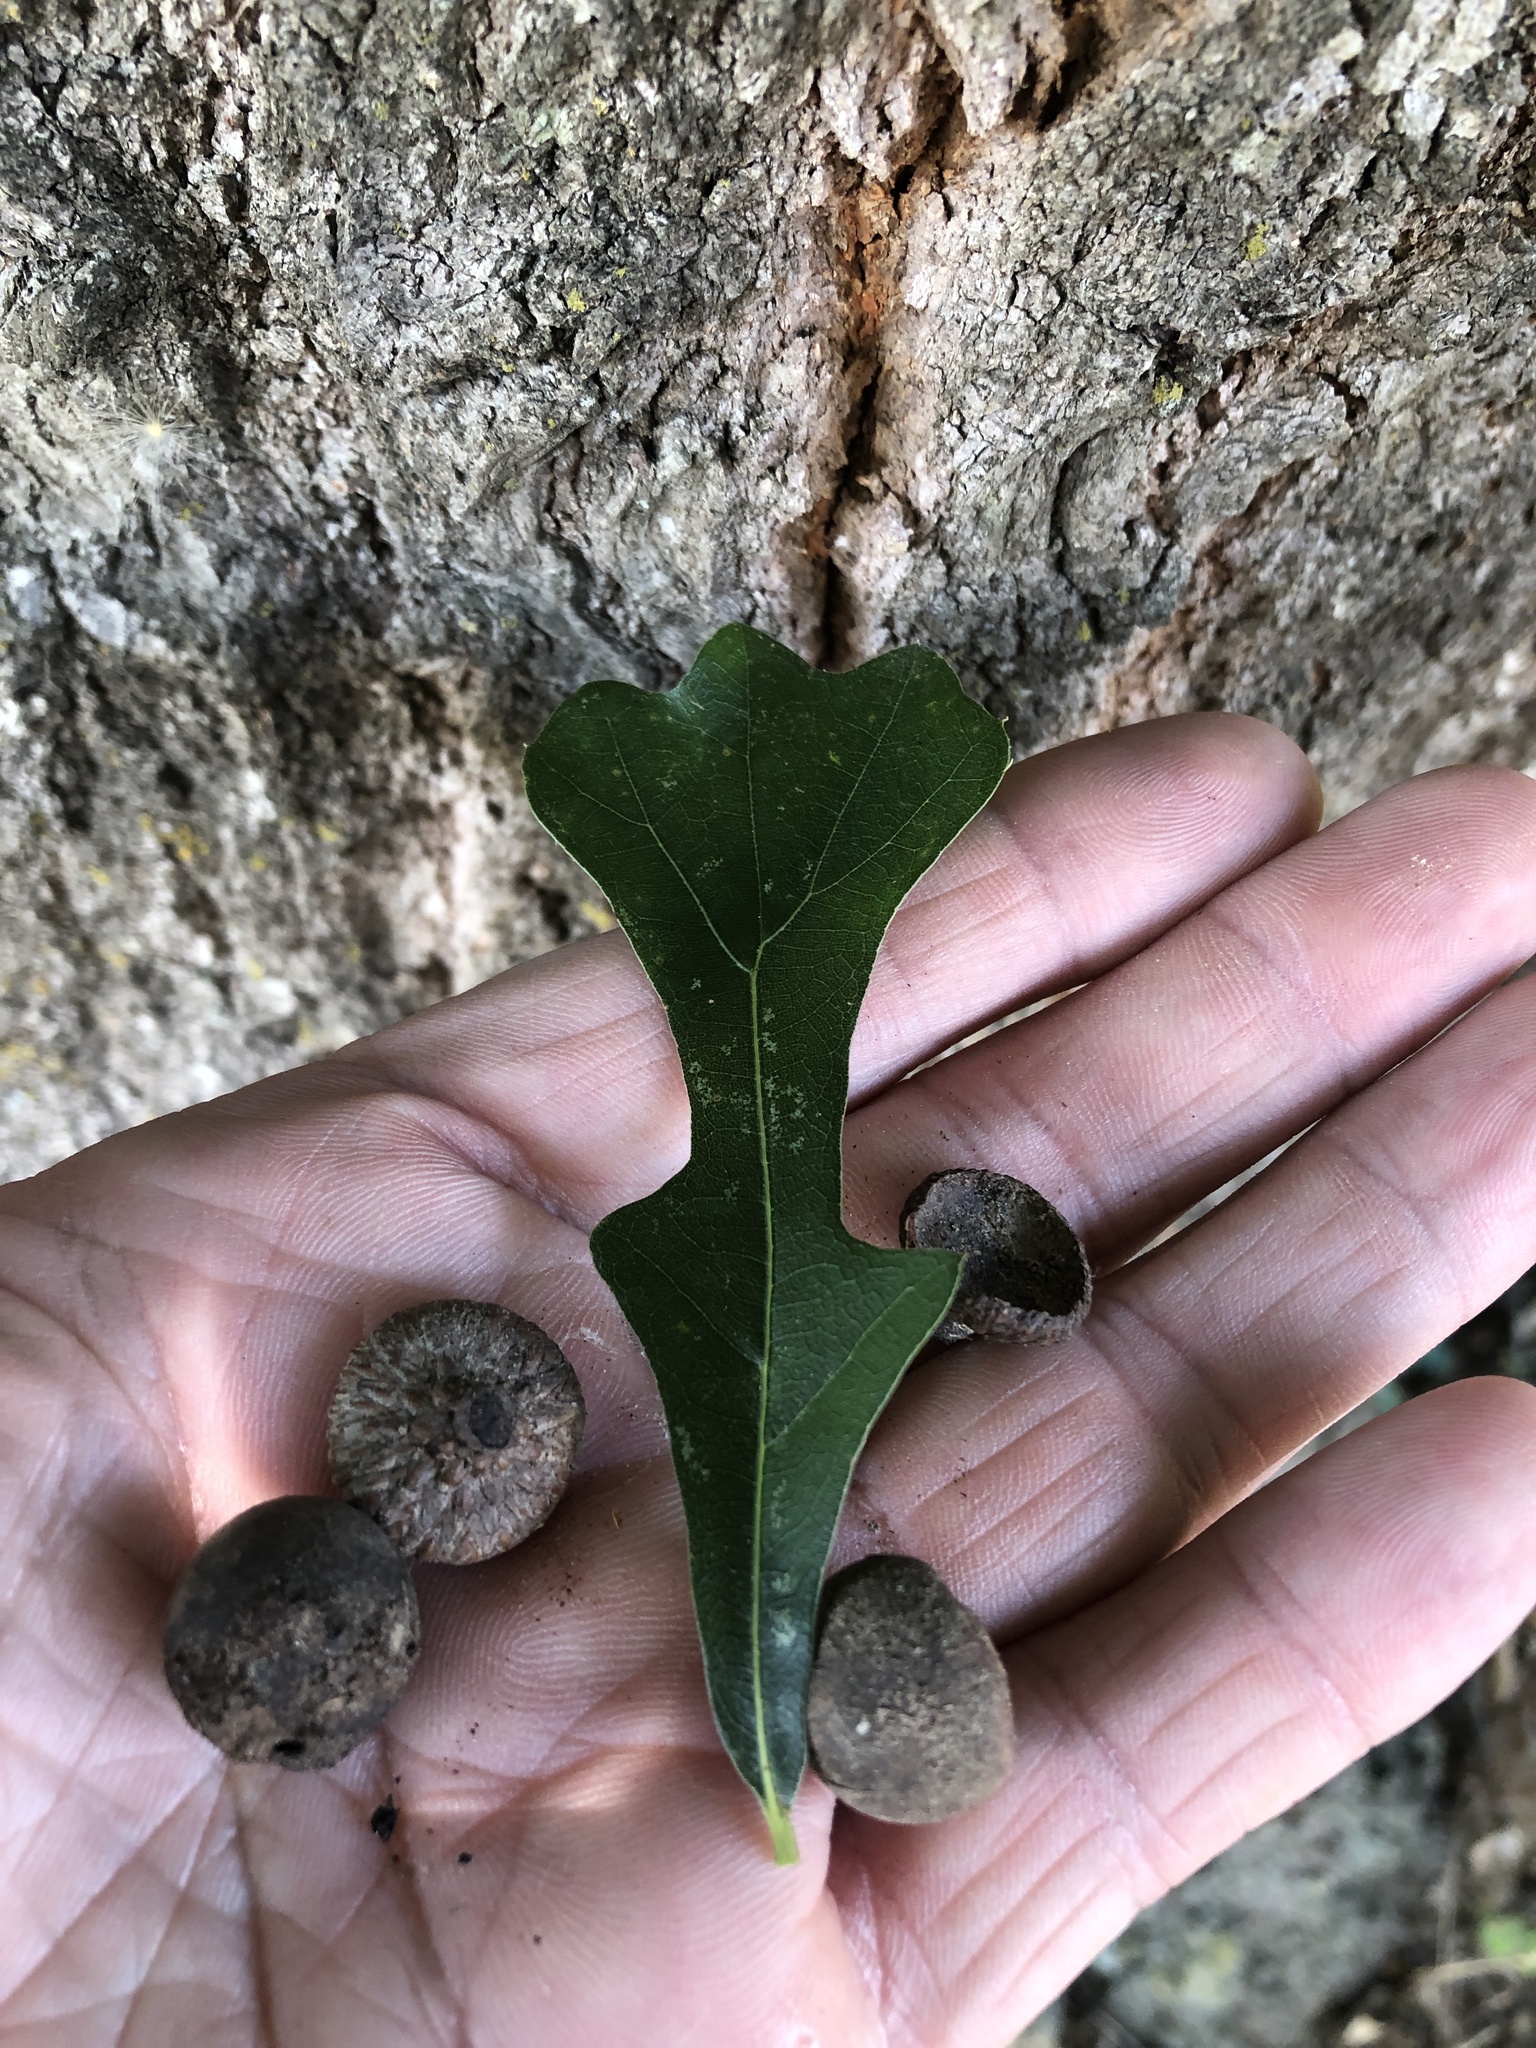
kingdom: Plantae
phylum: Tracheophyta
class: Magnoliopsida
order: Fagales
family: Fagaceae
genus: Quercus
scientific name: Quercus nigra
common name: Water oak
